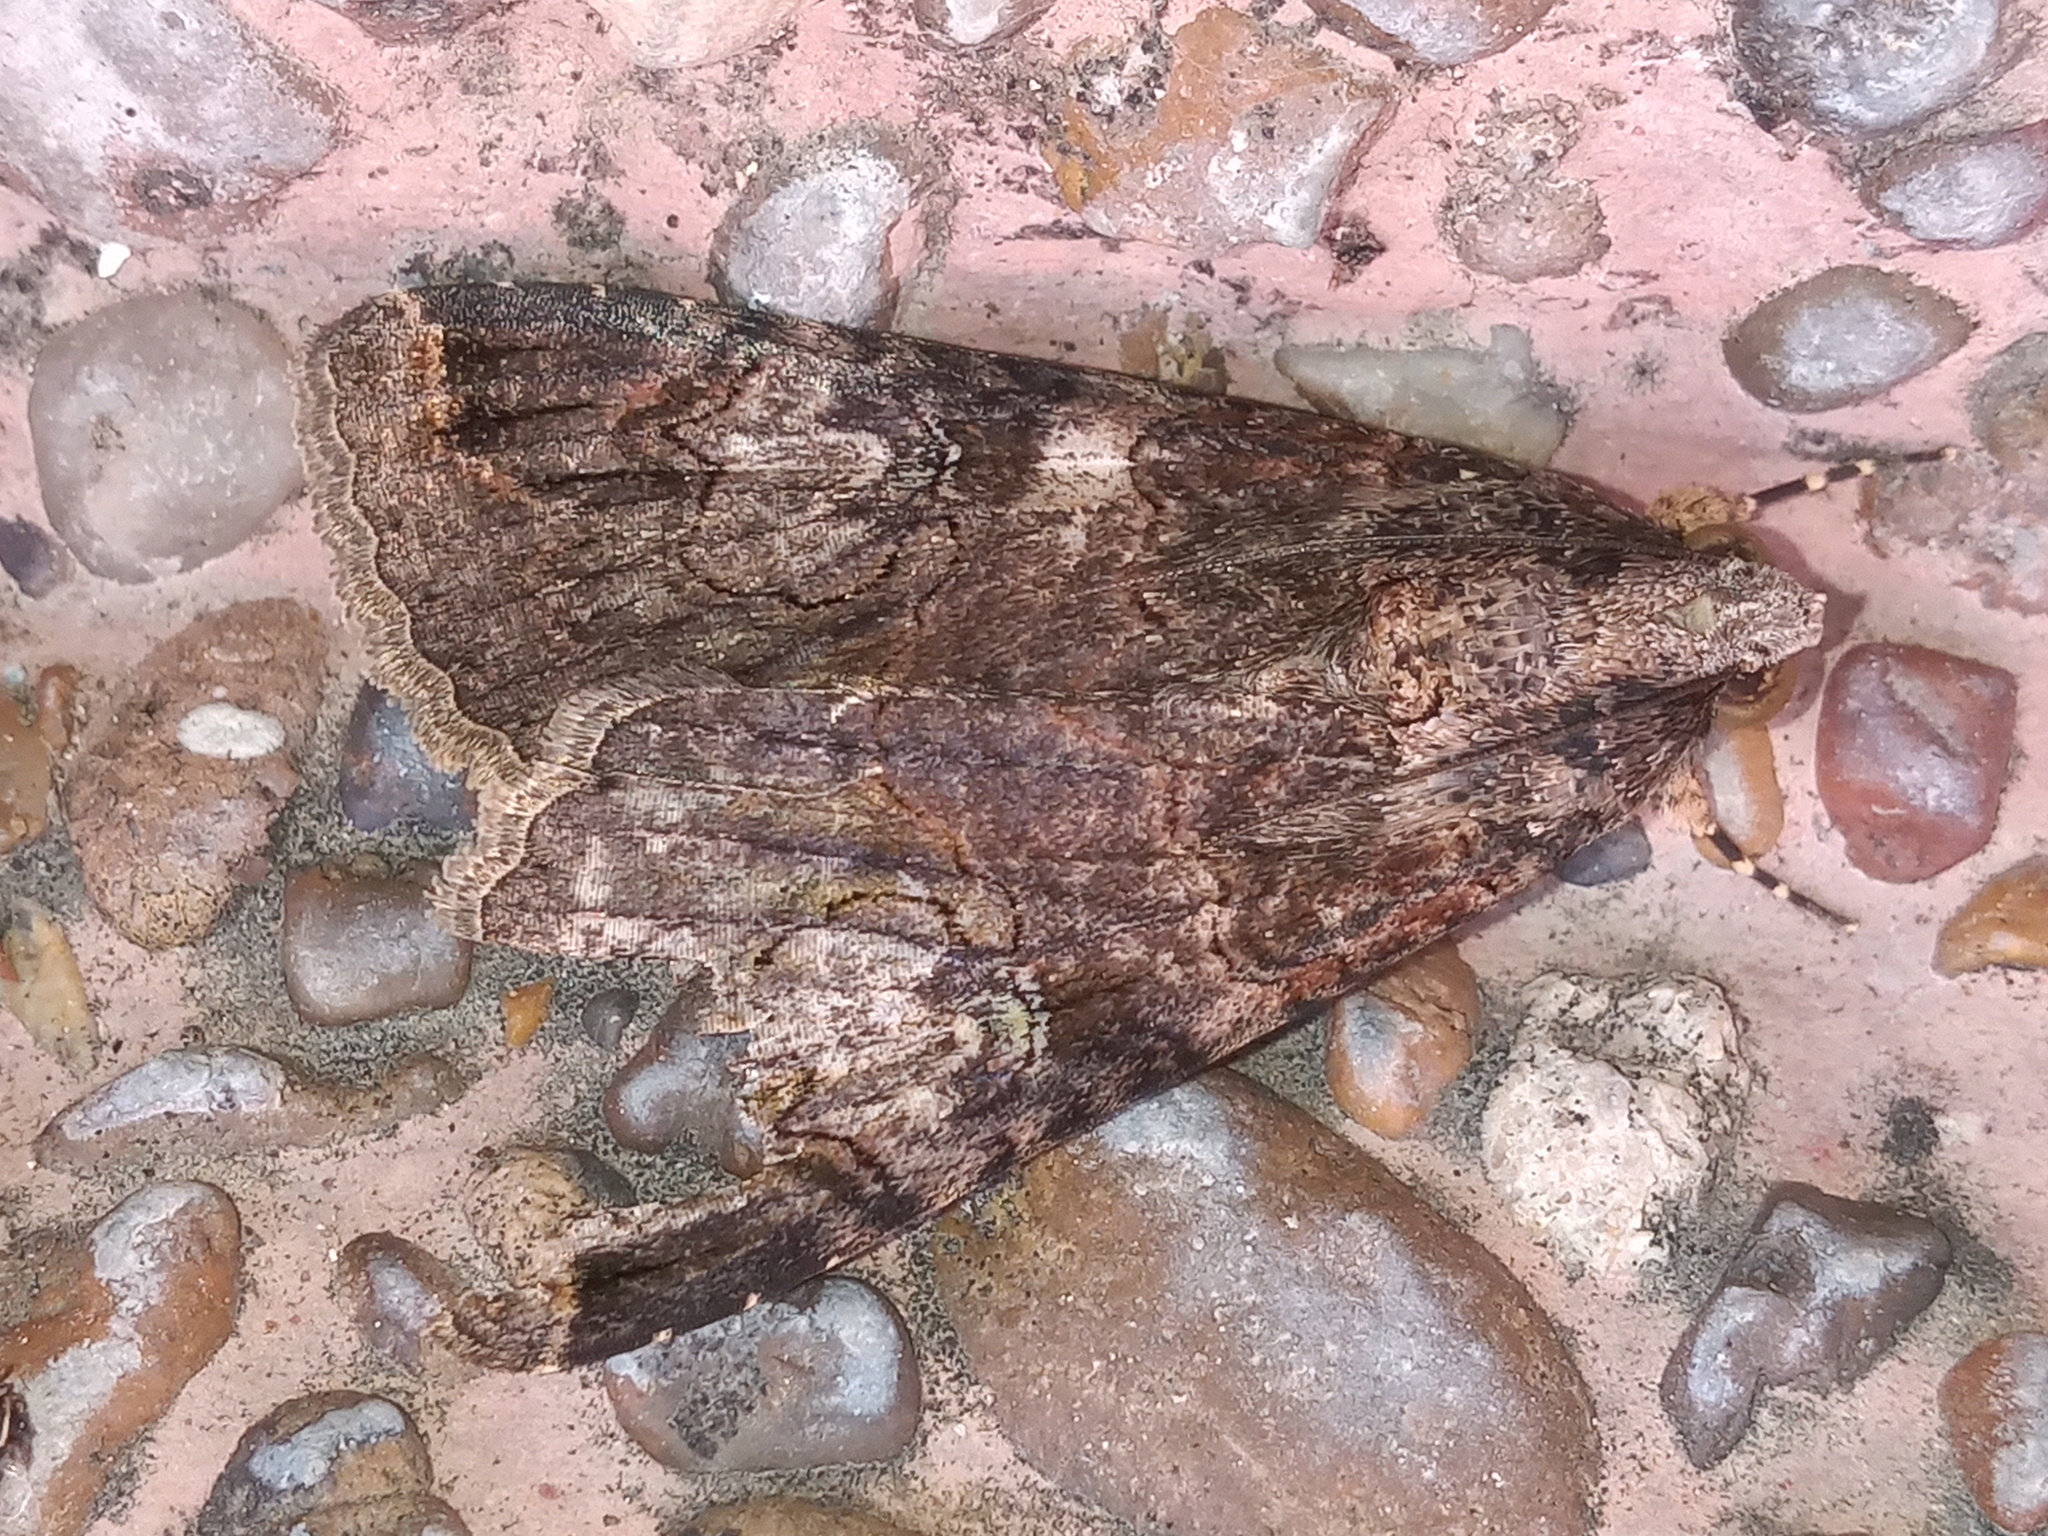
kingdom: Animalia
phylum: Arthropoda
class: Insecta
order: Lepidoptera
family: Erebidae
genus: Melipotis
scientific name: Melipotis famelica
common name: Famelica melipotis moth
